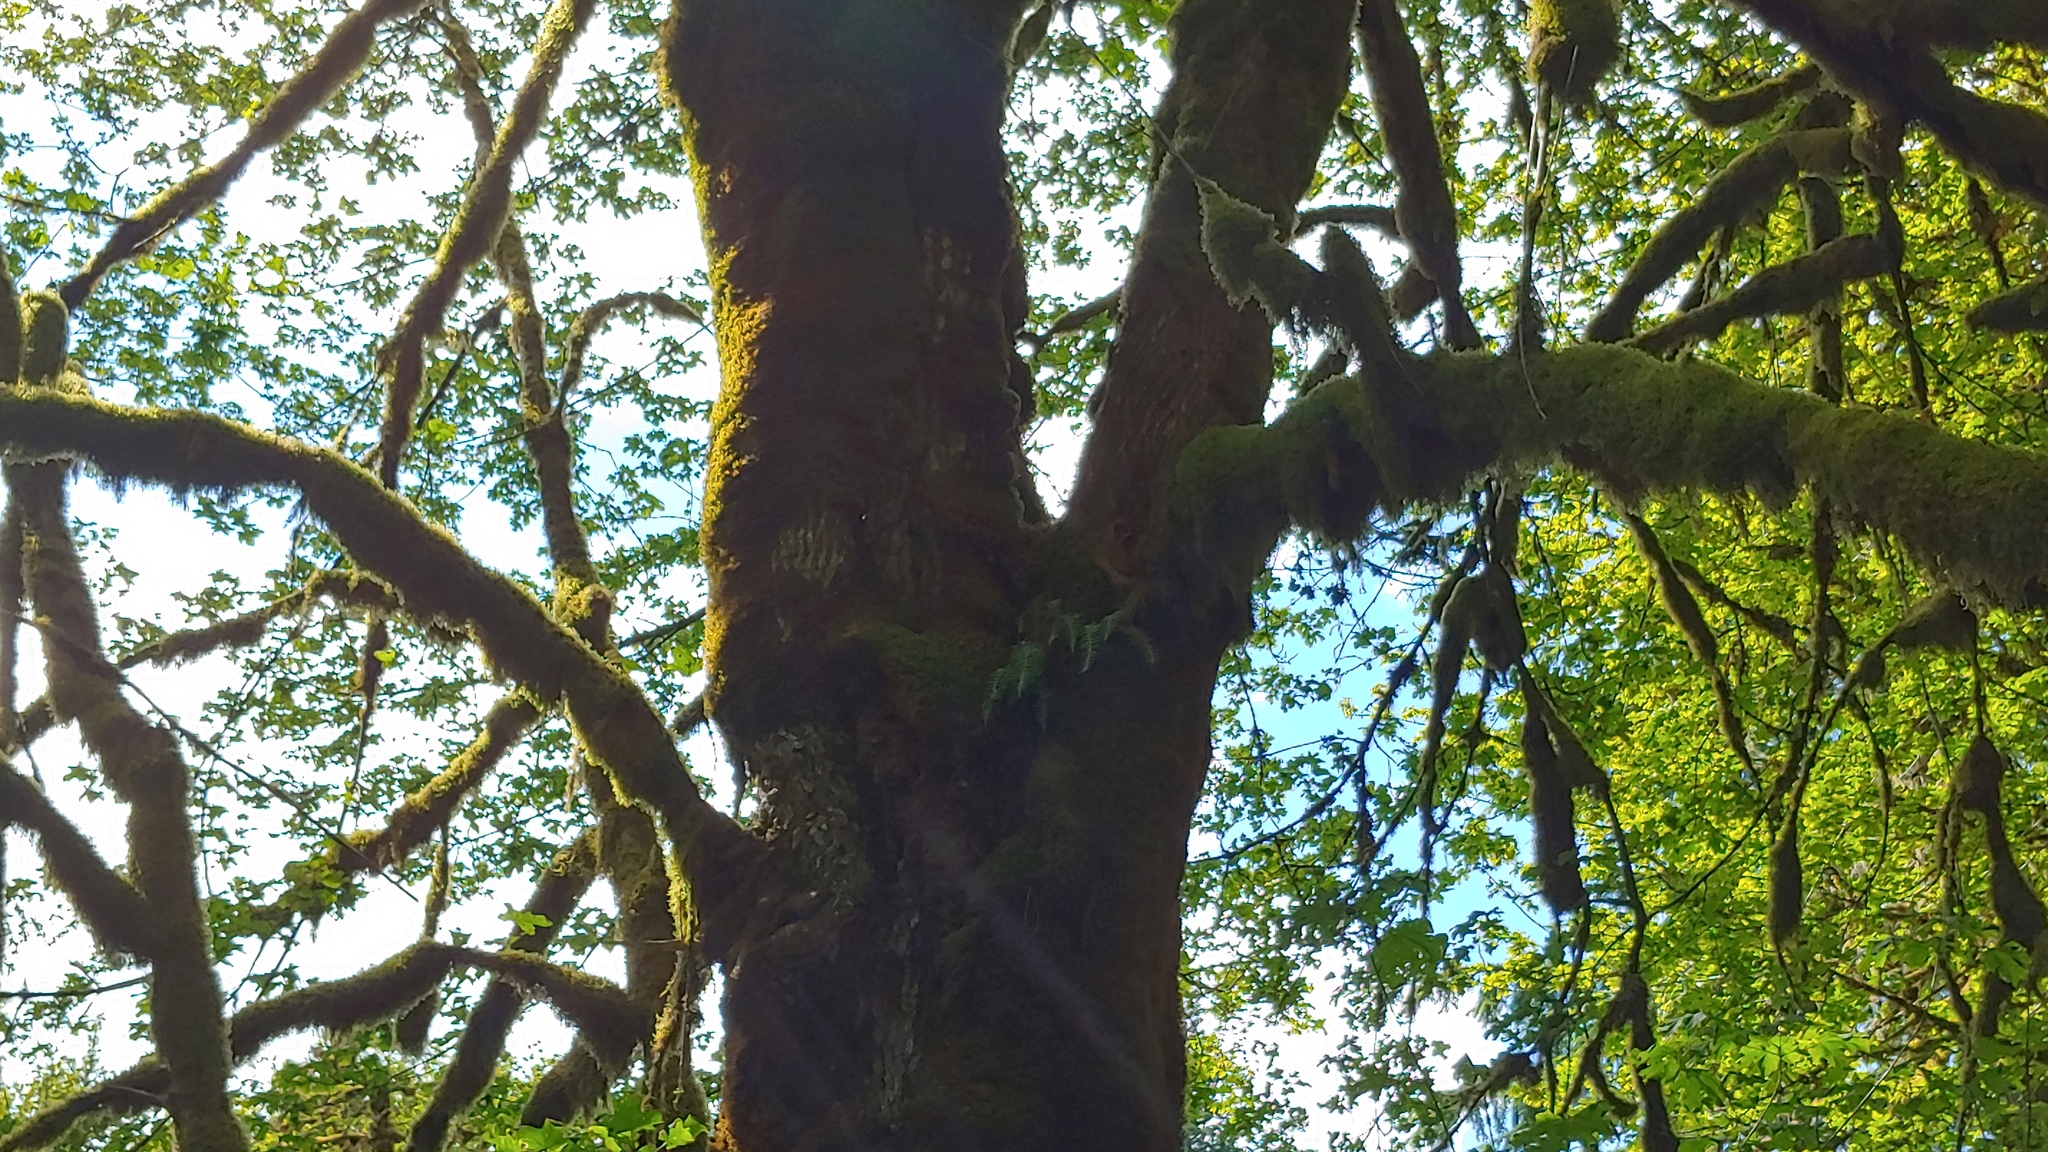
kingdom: Plantae
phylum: Tracheophyta
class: Polypodiopsida
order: Polypodiales
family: Polypodiaceae
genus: Polypodium
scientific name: Polypodium glycyrrhiza
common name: Licorice fern
